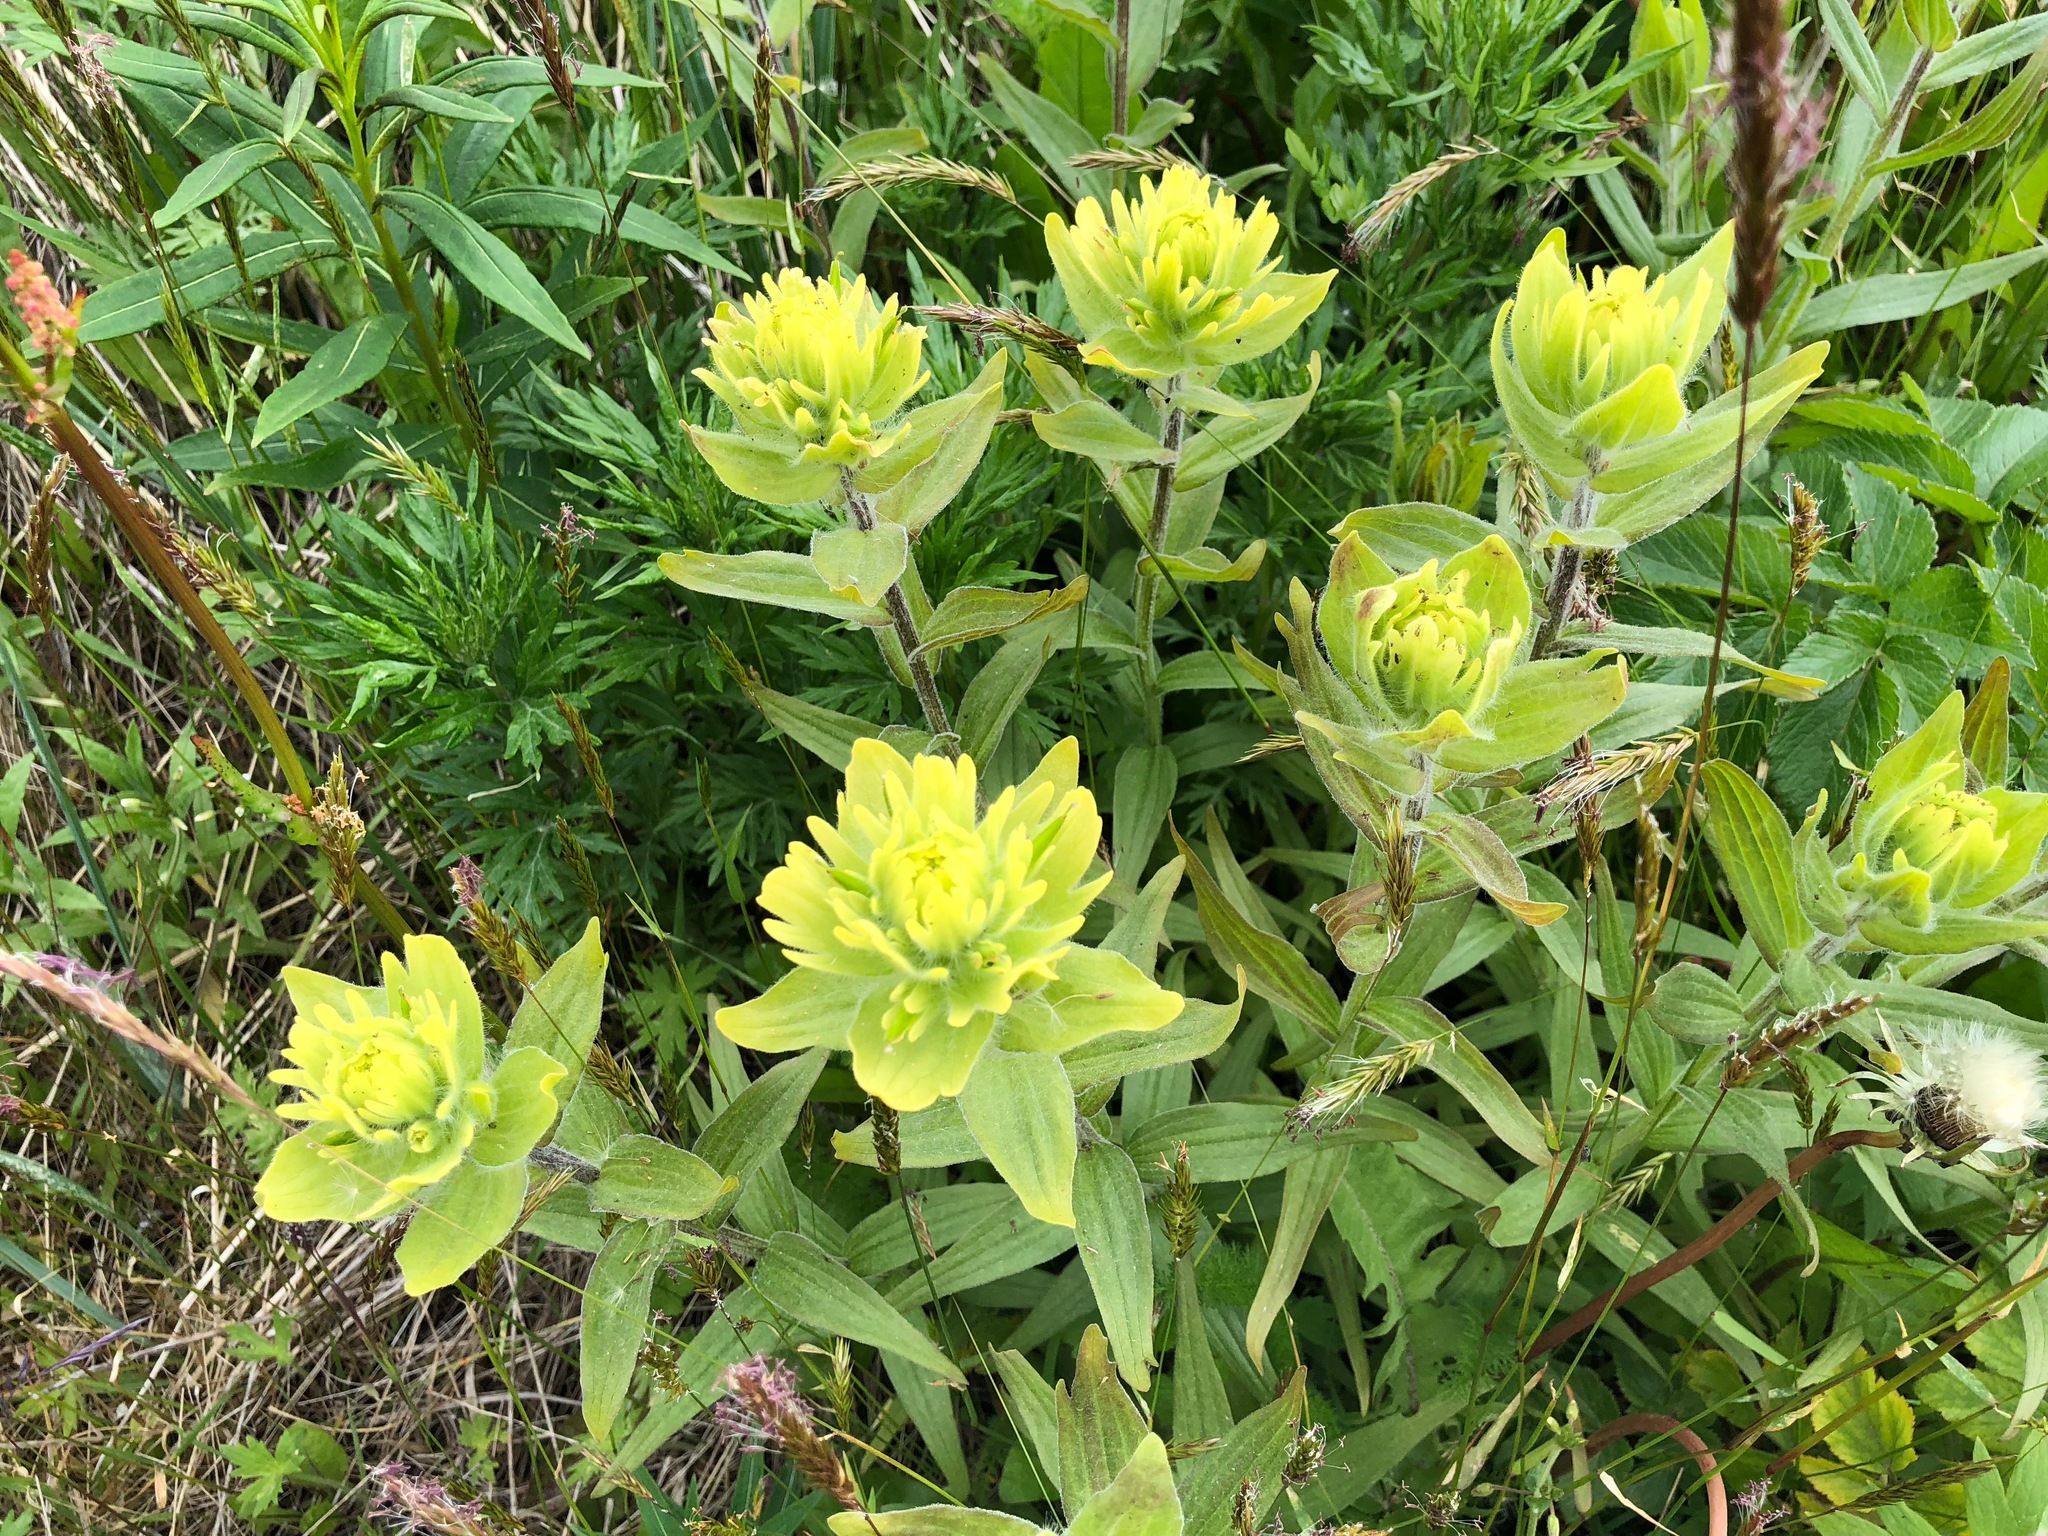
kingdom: Plantae
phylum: Tracheophyta
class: Magnoliopsida
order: Lamiales
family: Orobanchaceae
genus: Castilleja
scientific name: Castilleja unalaschcensis
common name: Unalaska paintbrush
